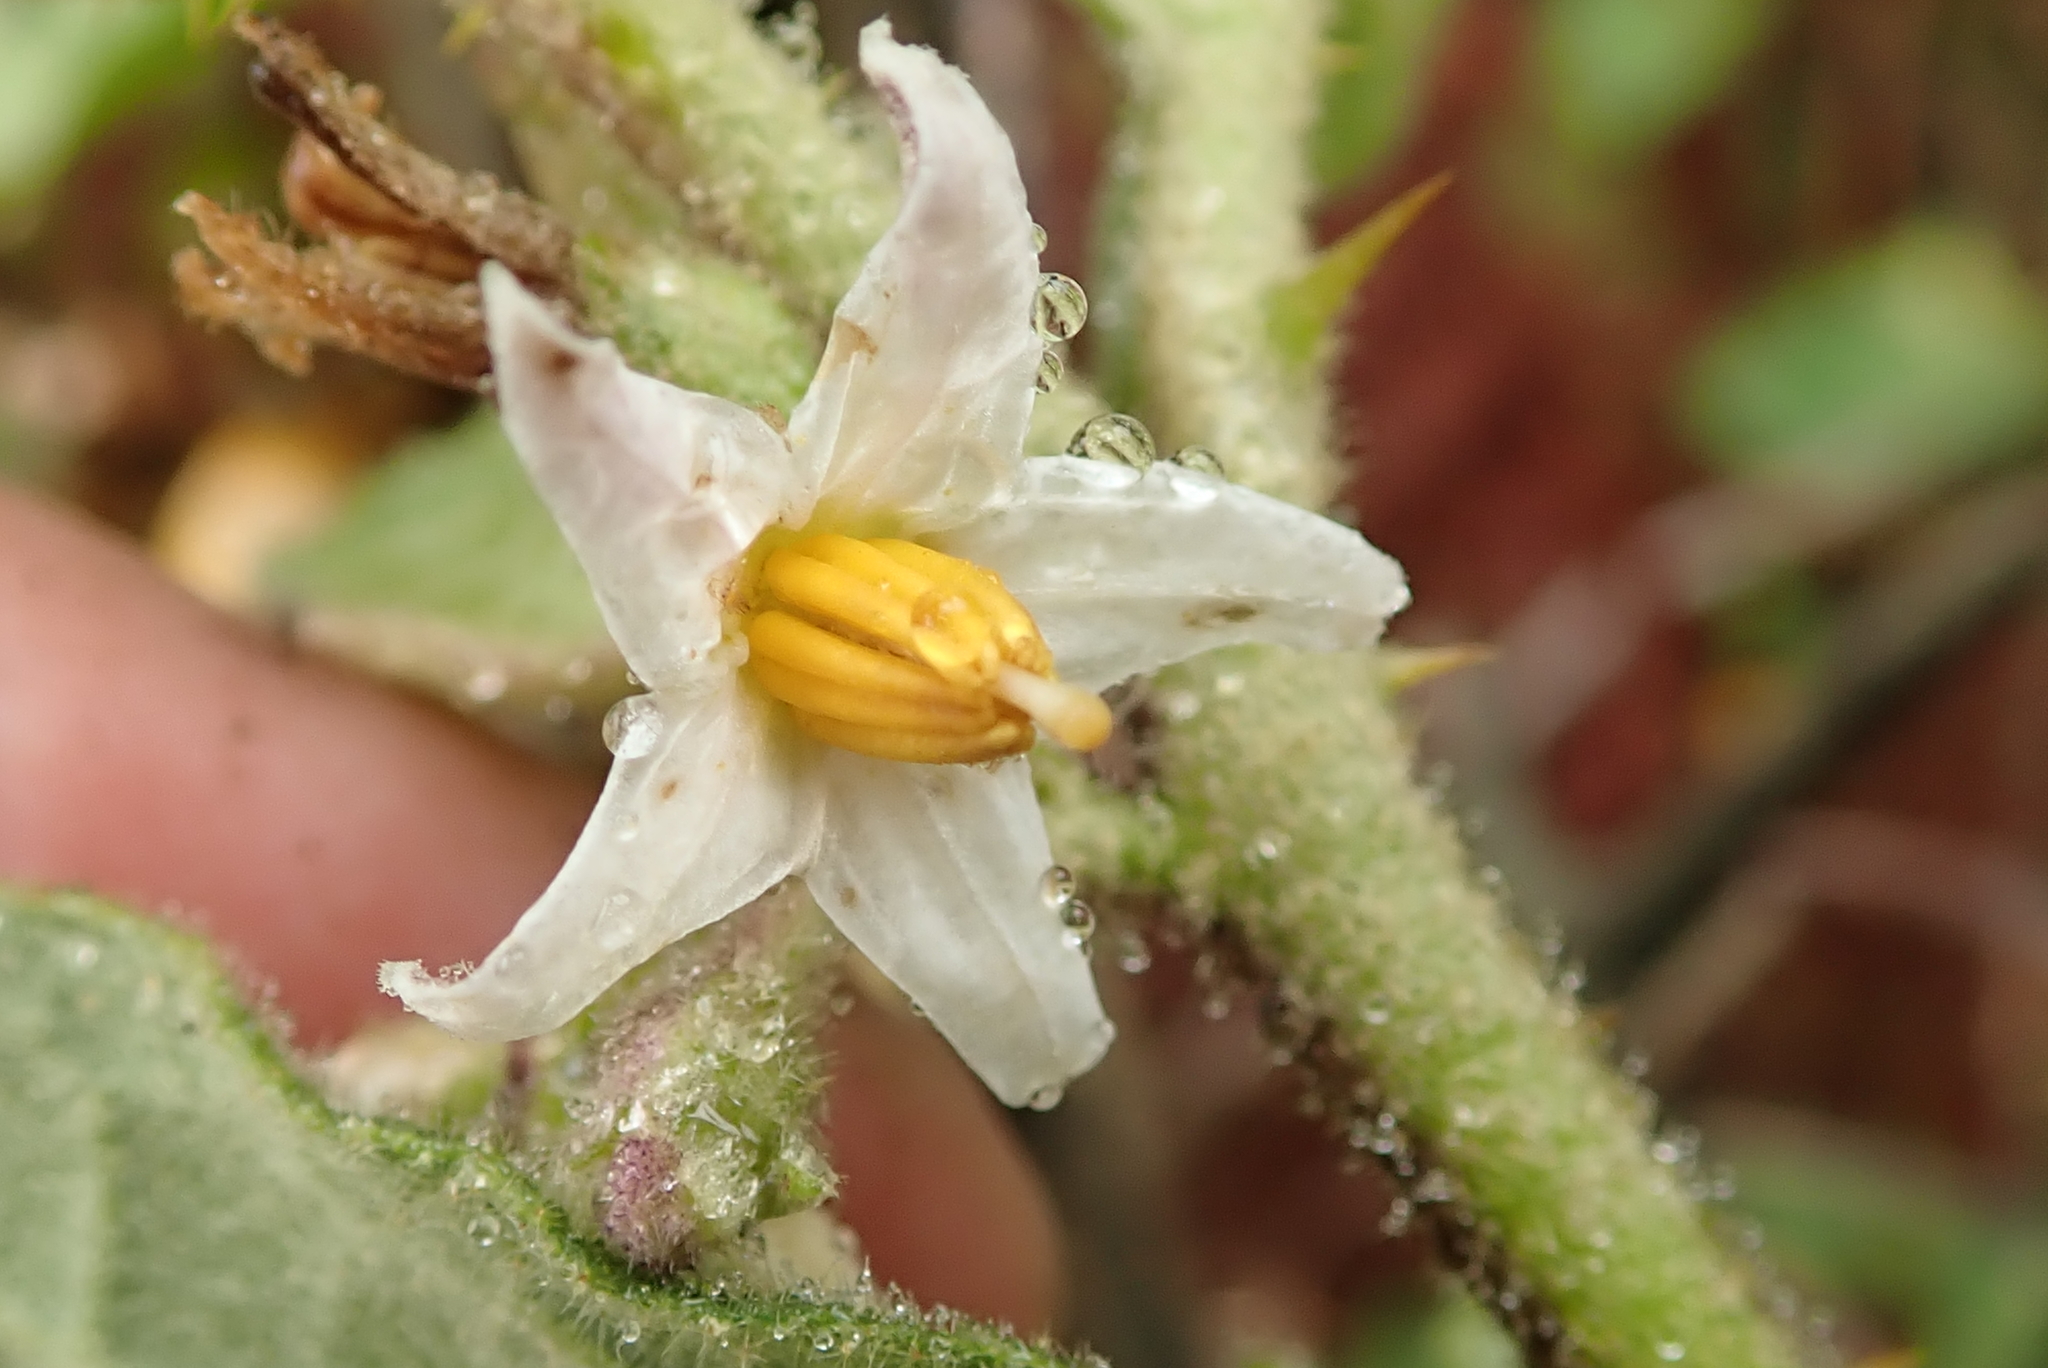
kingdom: Plantae
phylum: Tracheophyta
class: Magnoliopsida
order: Solanales
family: Solanaceae
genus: Solanum
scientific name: Solanum anguivi
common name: Forest bitterberry
